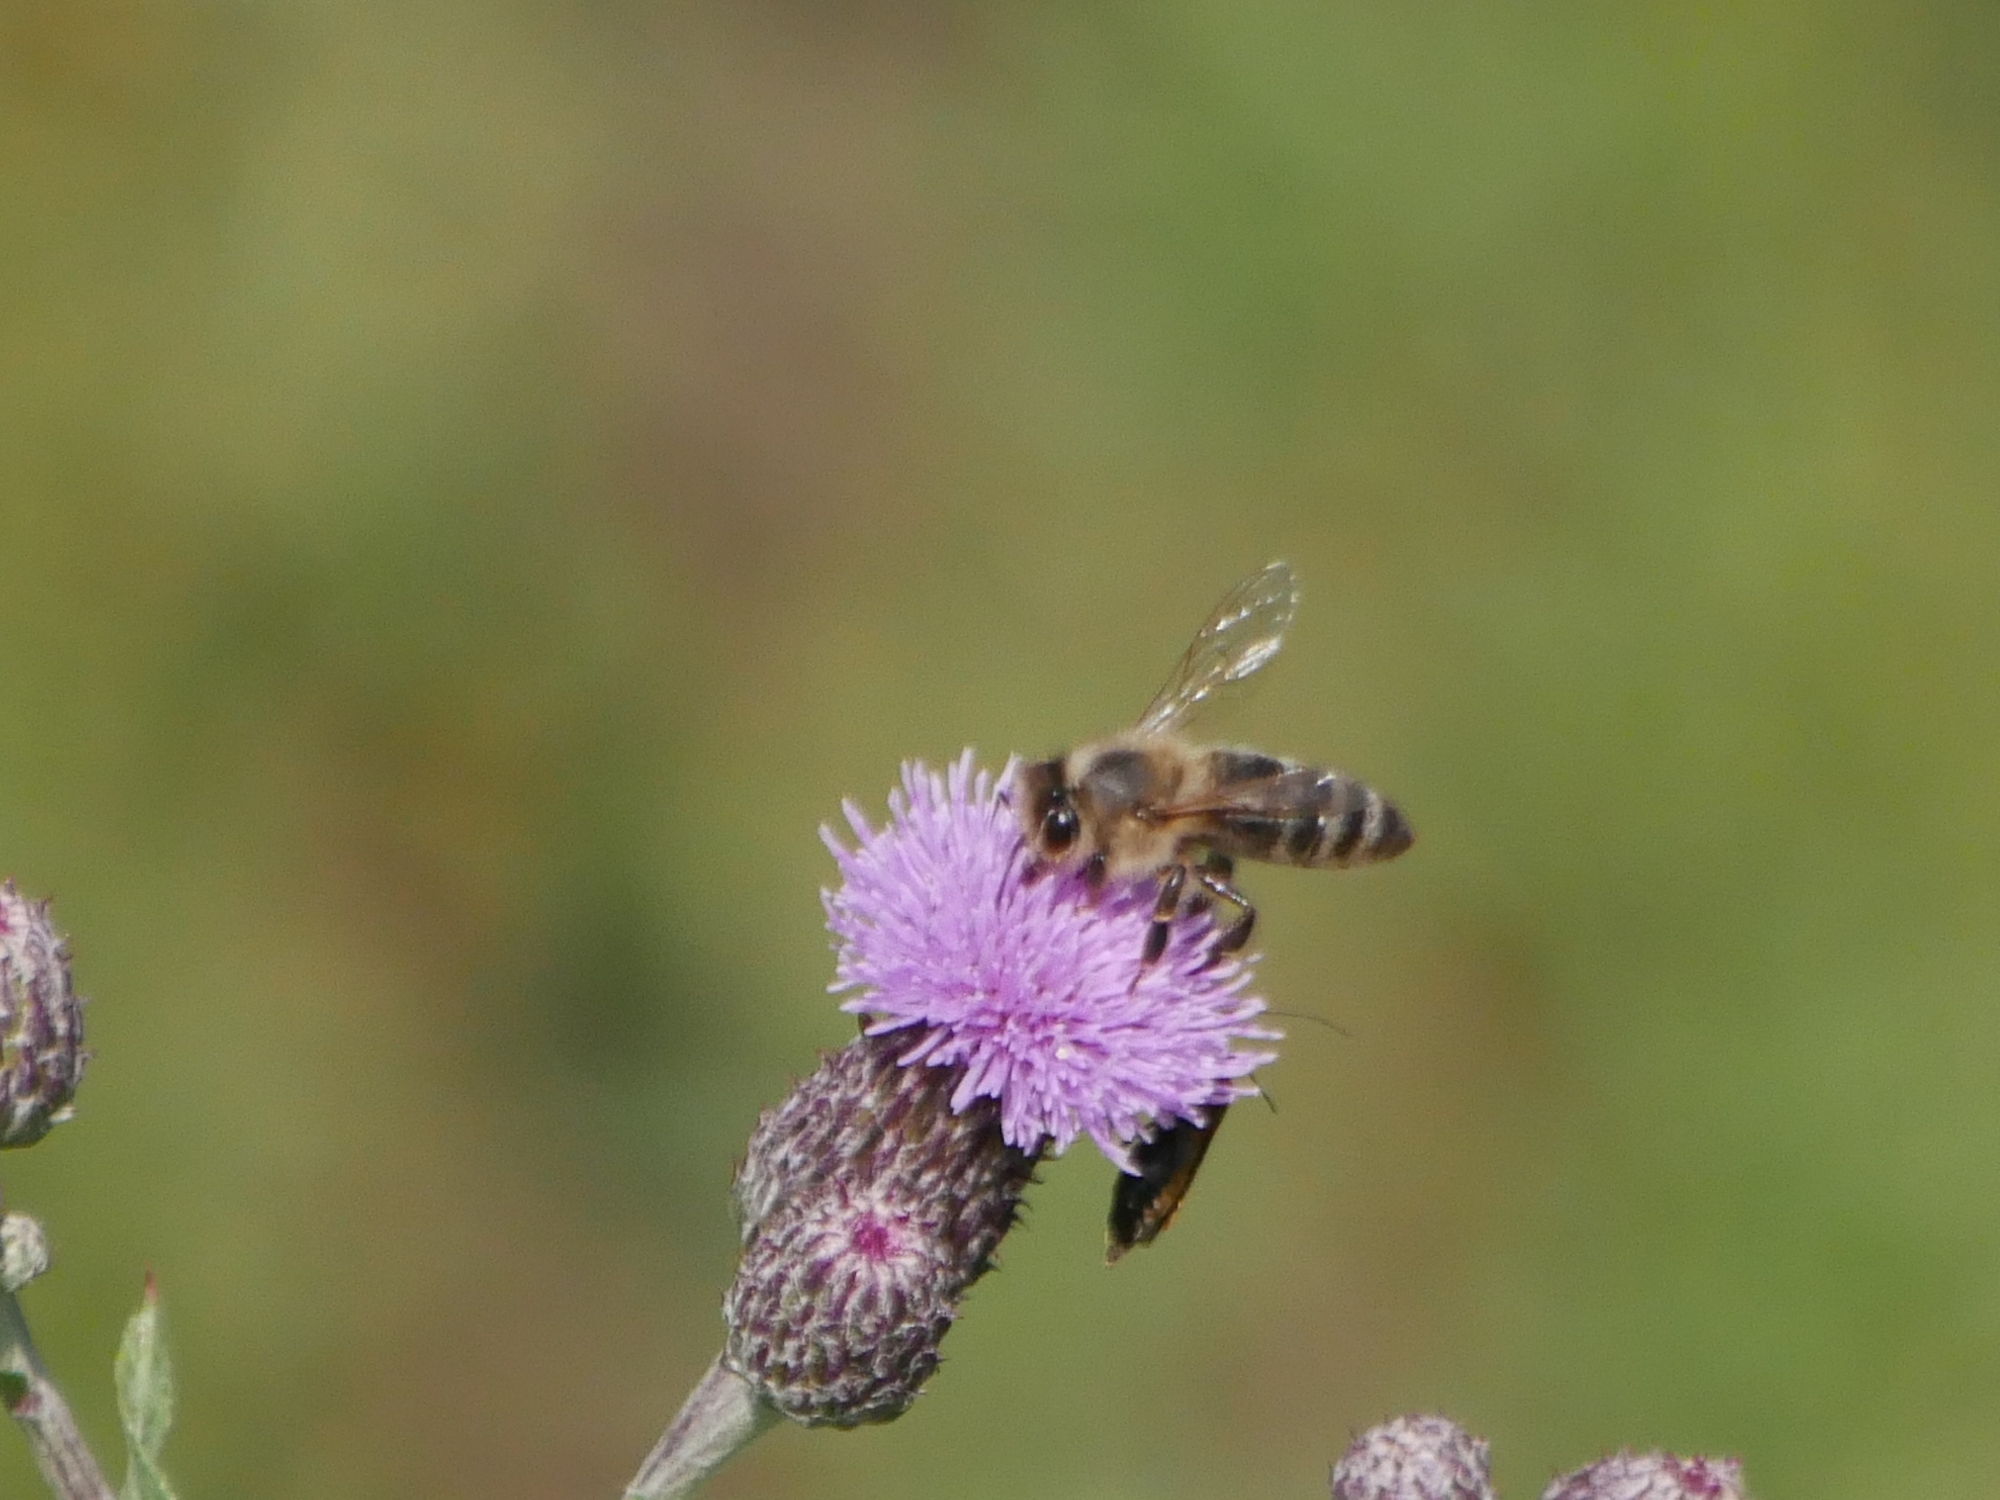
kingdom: Animalia
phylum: Arthropoda
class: Insecta
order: Hymenoptera
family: Apidae
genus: Apis
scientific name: Apis mellifera
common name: Honey bee
